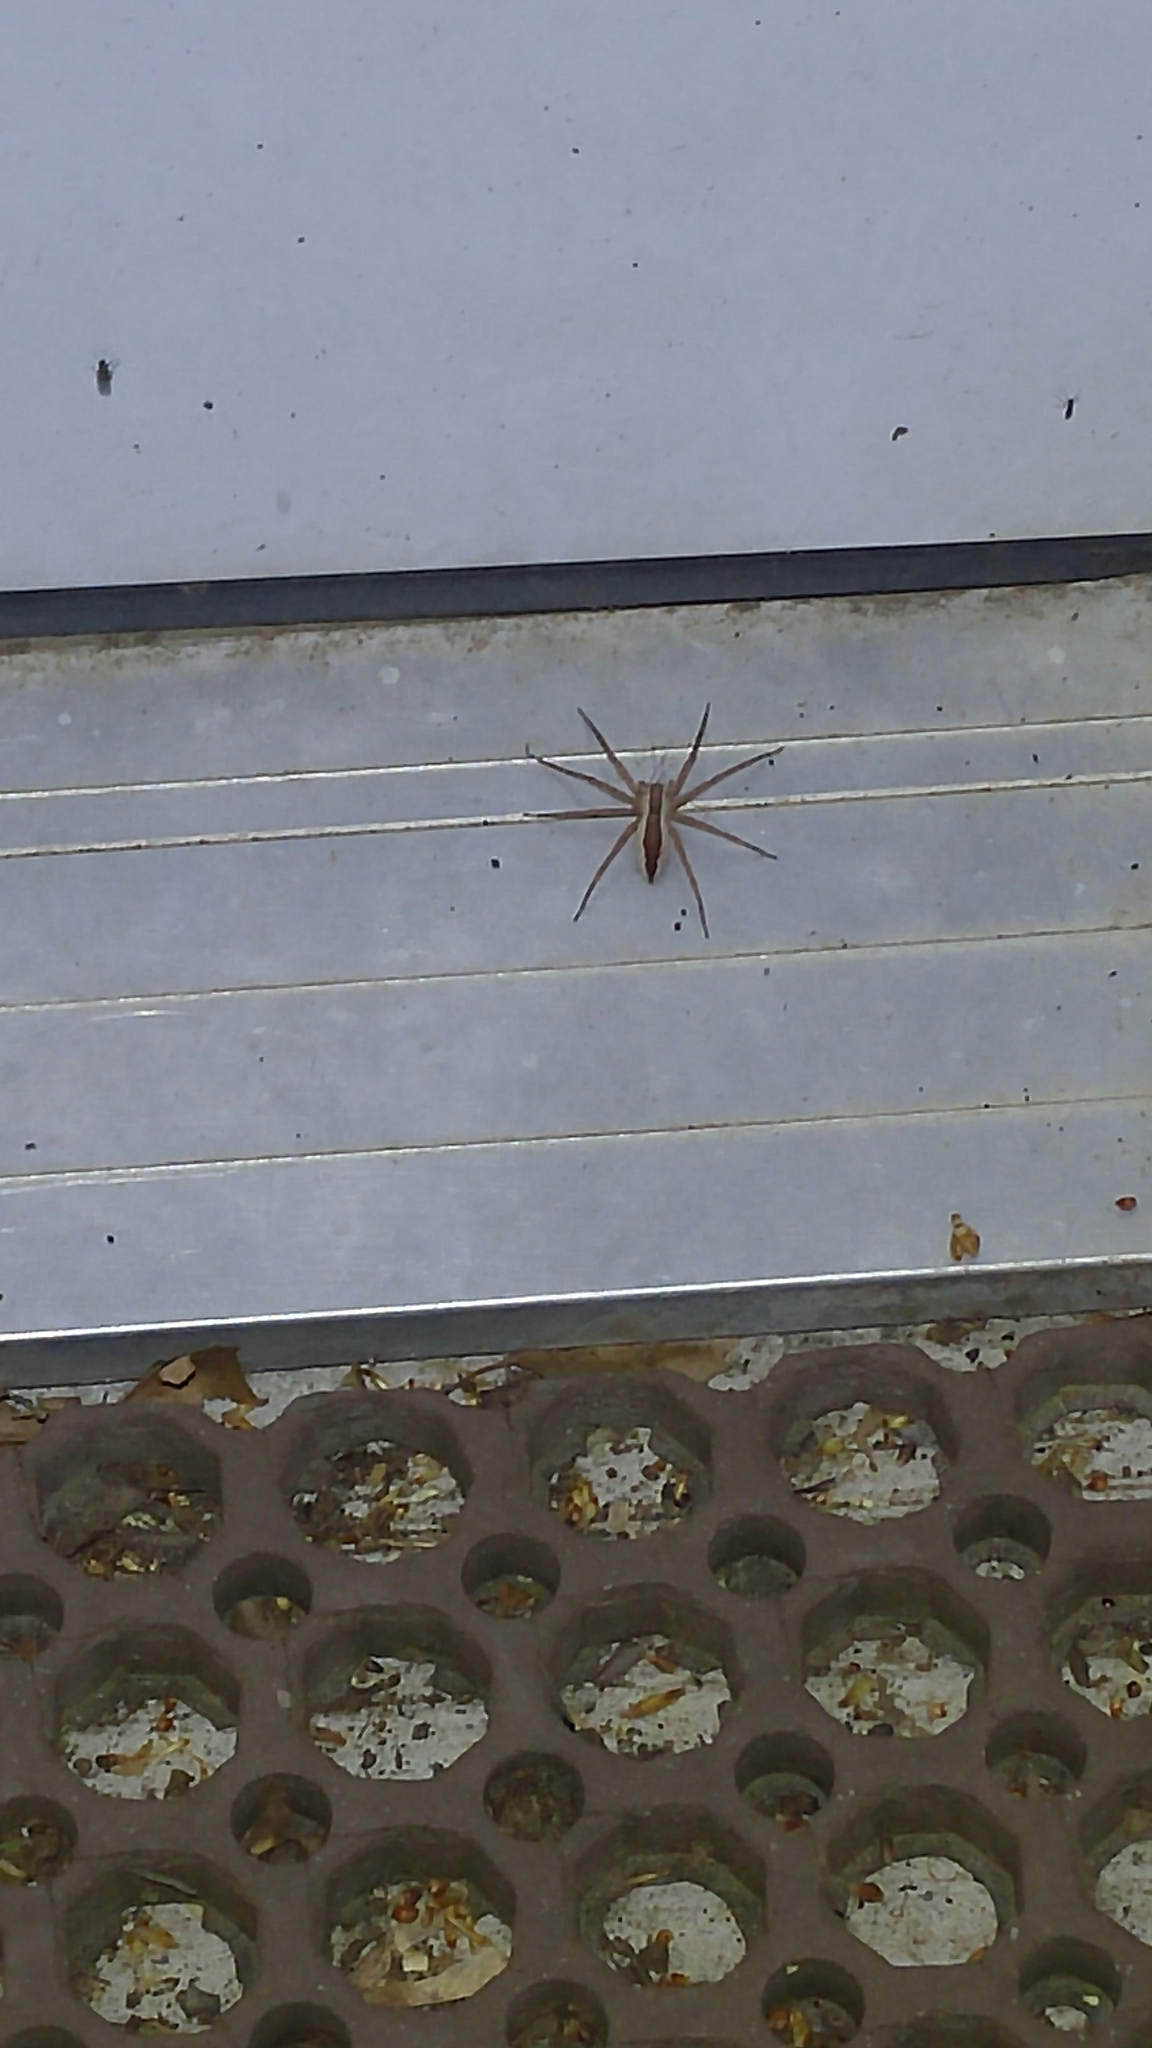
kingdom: Animalia
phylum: Arthropoda
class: Arachnida
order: Araneae
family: Pisauridae
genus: Pisaurina
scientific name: Pisaurina mira
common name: American nursery web spider
